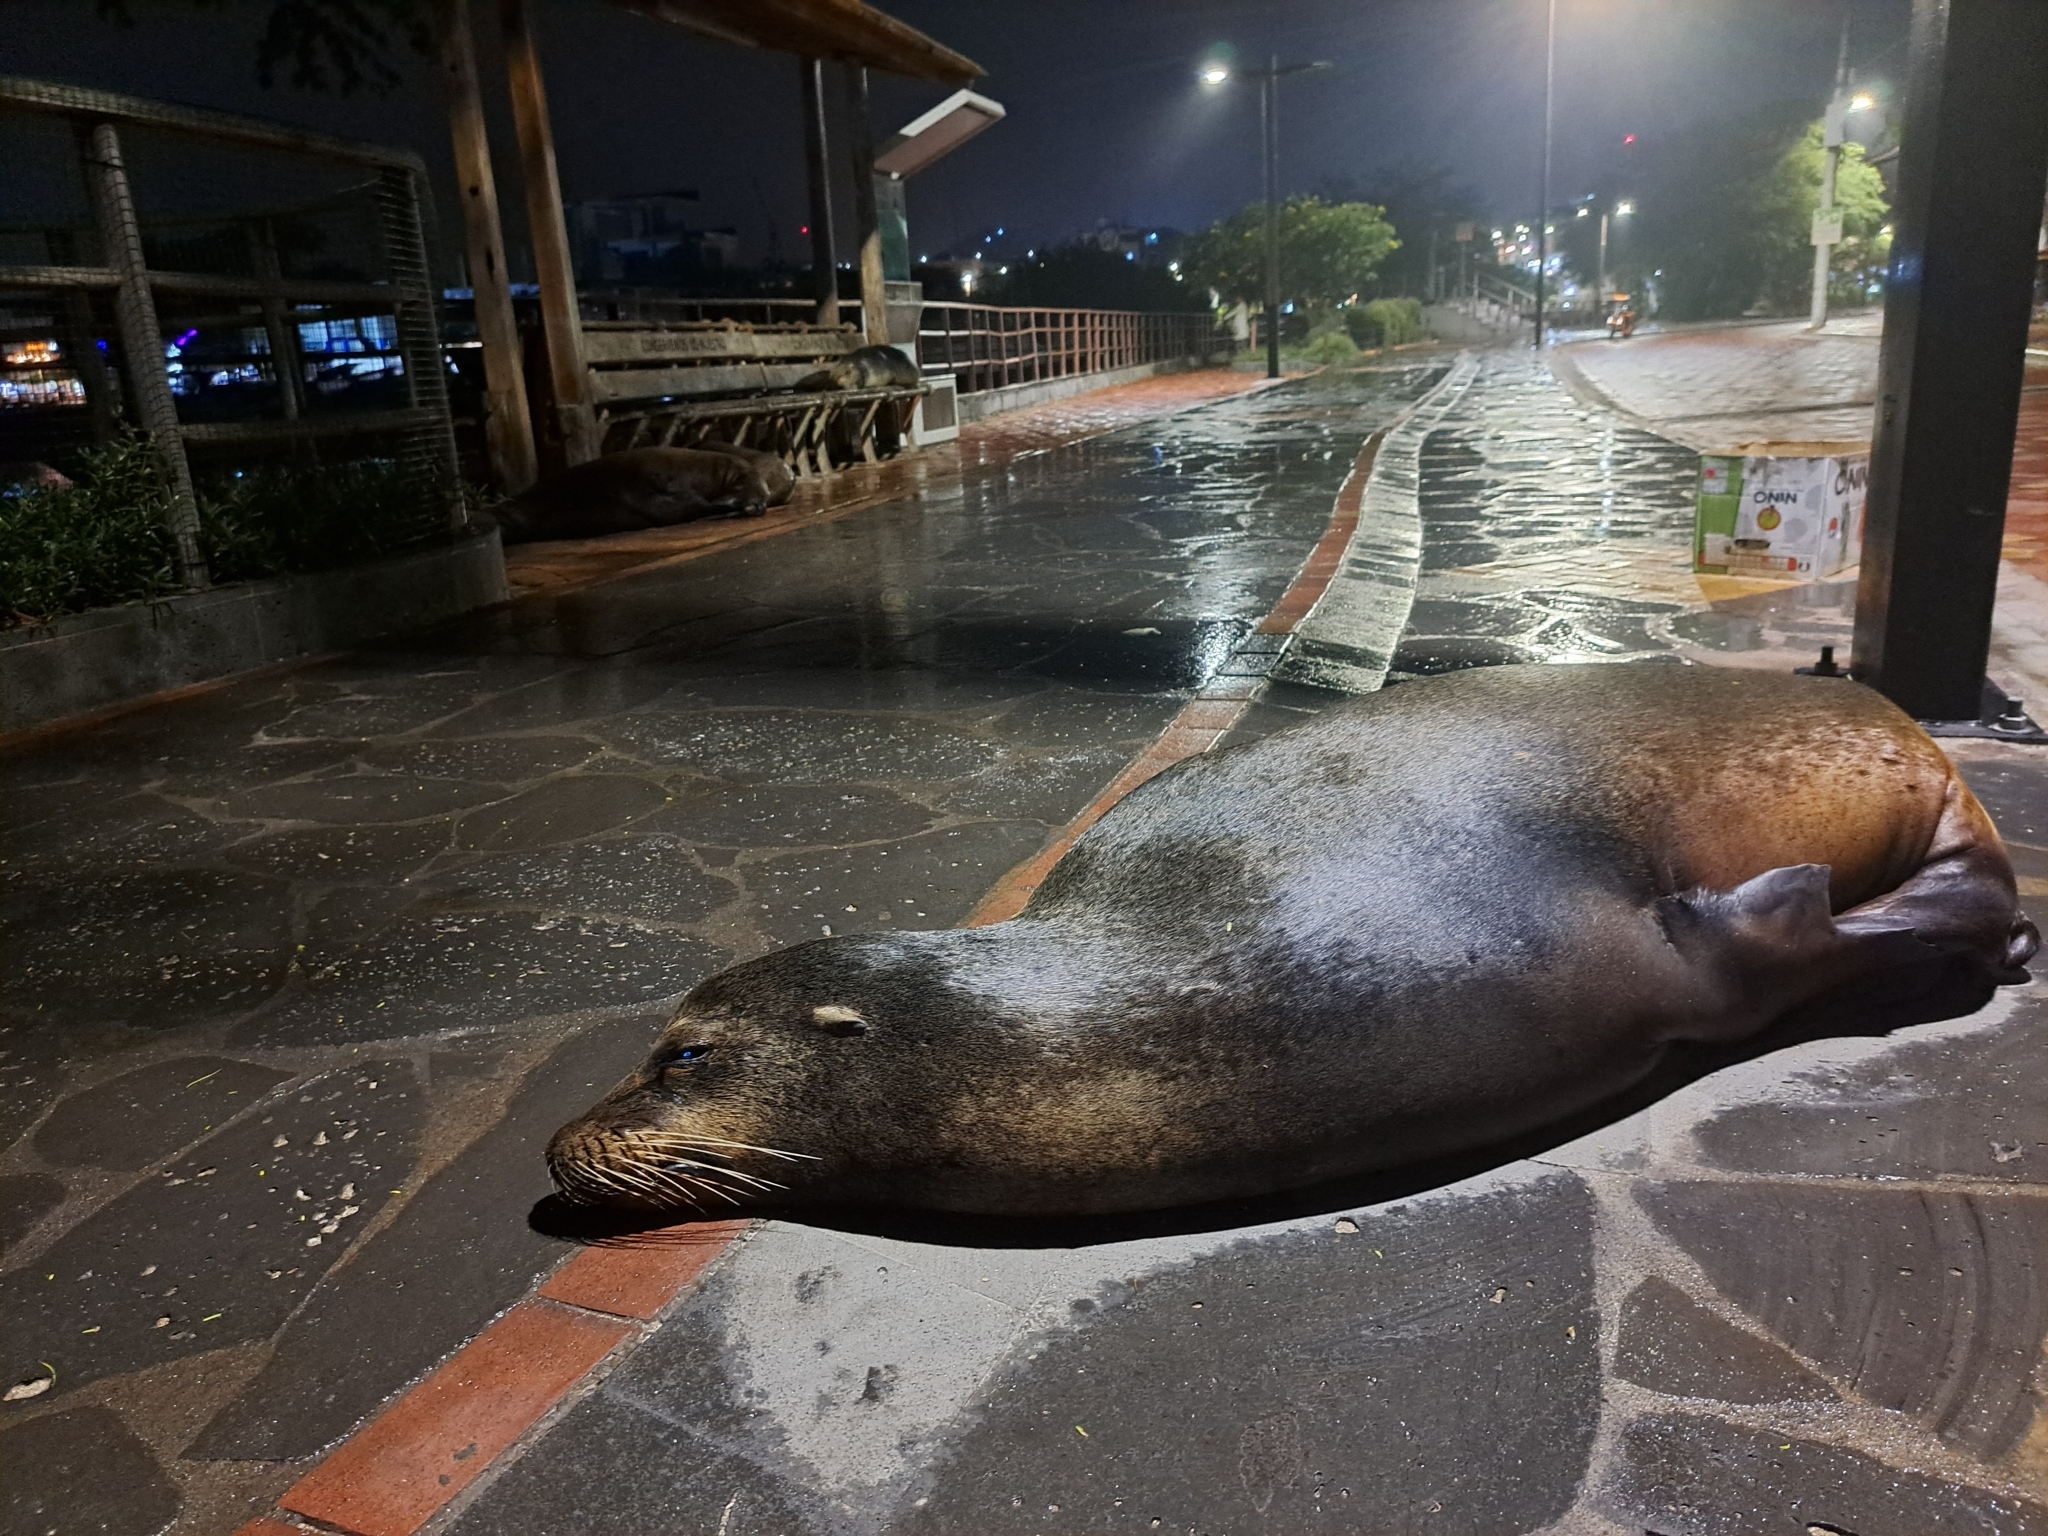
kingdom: Animalia
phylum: Chordata
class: Mammalia
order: Carnivora
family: Otariidae
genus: Zalophus
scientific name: Zalophus wollebaeki
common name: Galapagos sea lion
